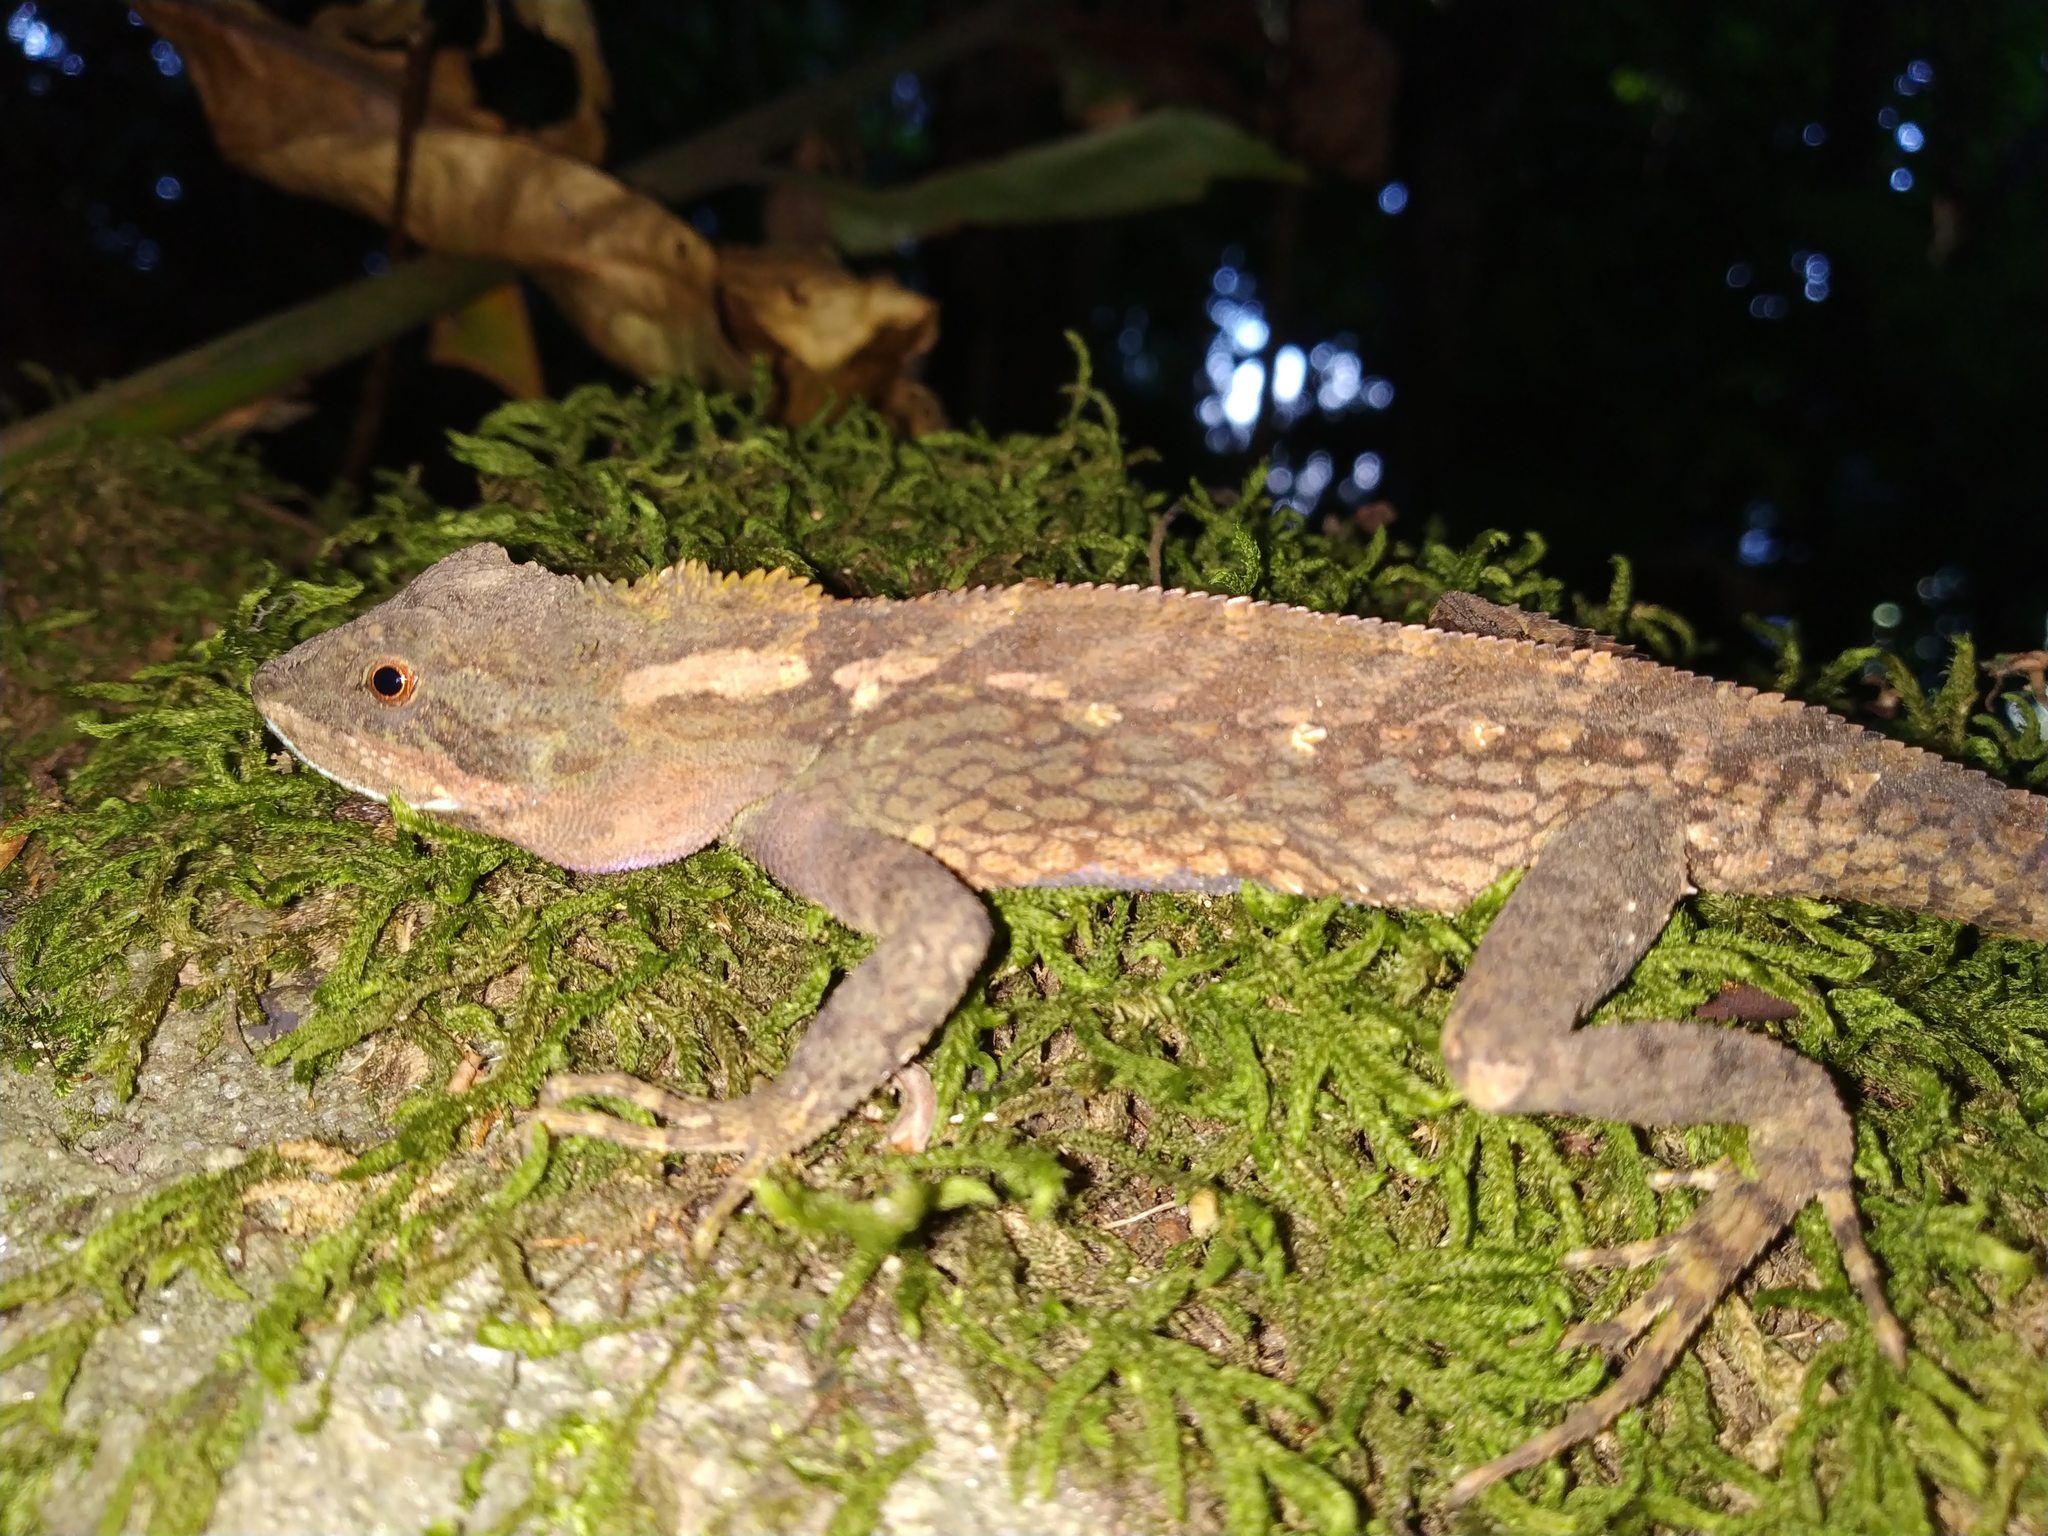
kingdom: Animalia
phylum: Chordata
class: Squamata
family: Agamidae
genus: Japalura
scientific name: Japalura variegata
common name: East himalayan mountain lizard
